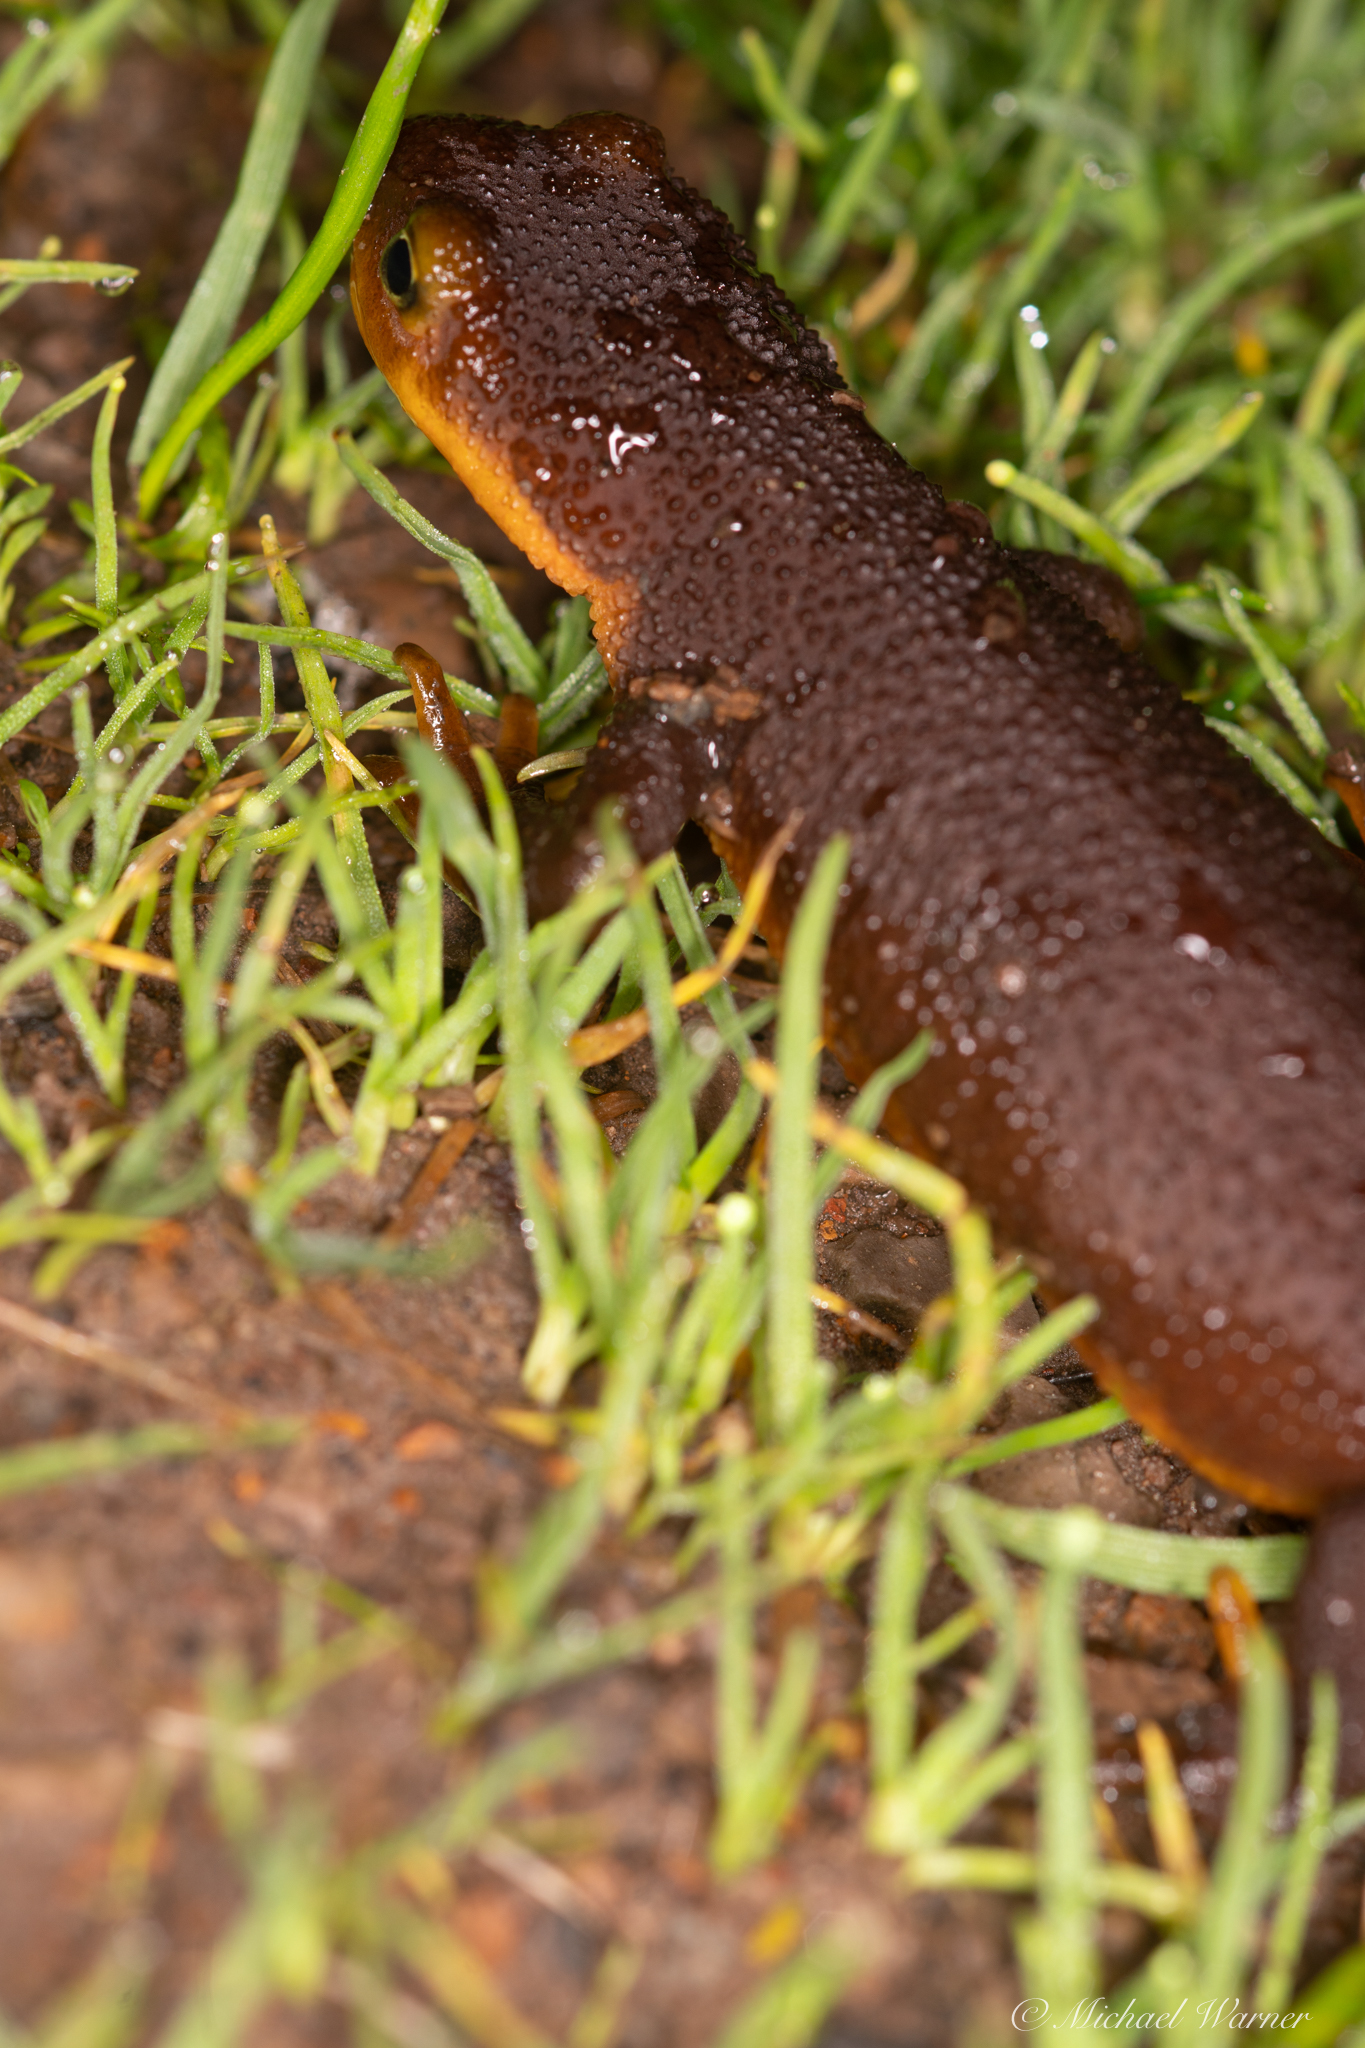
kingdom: Animalia
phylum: Chordata
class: Amphibia
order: Caudata
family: Salamandridae
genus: Taricha
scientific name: Taricha torosa
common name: California newt
